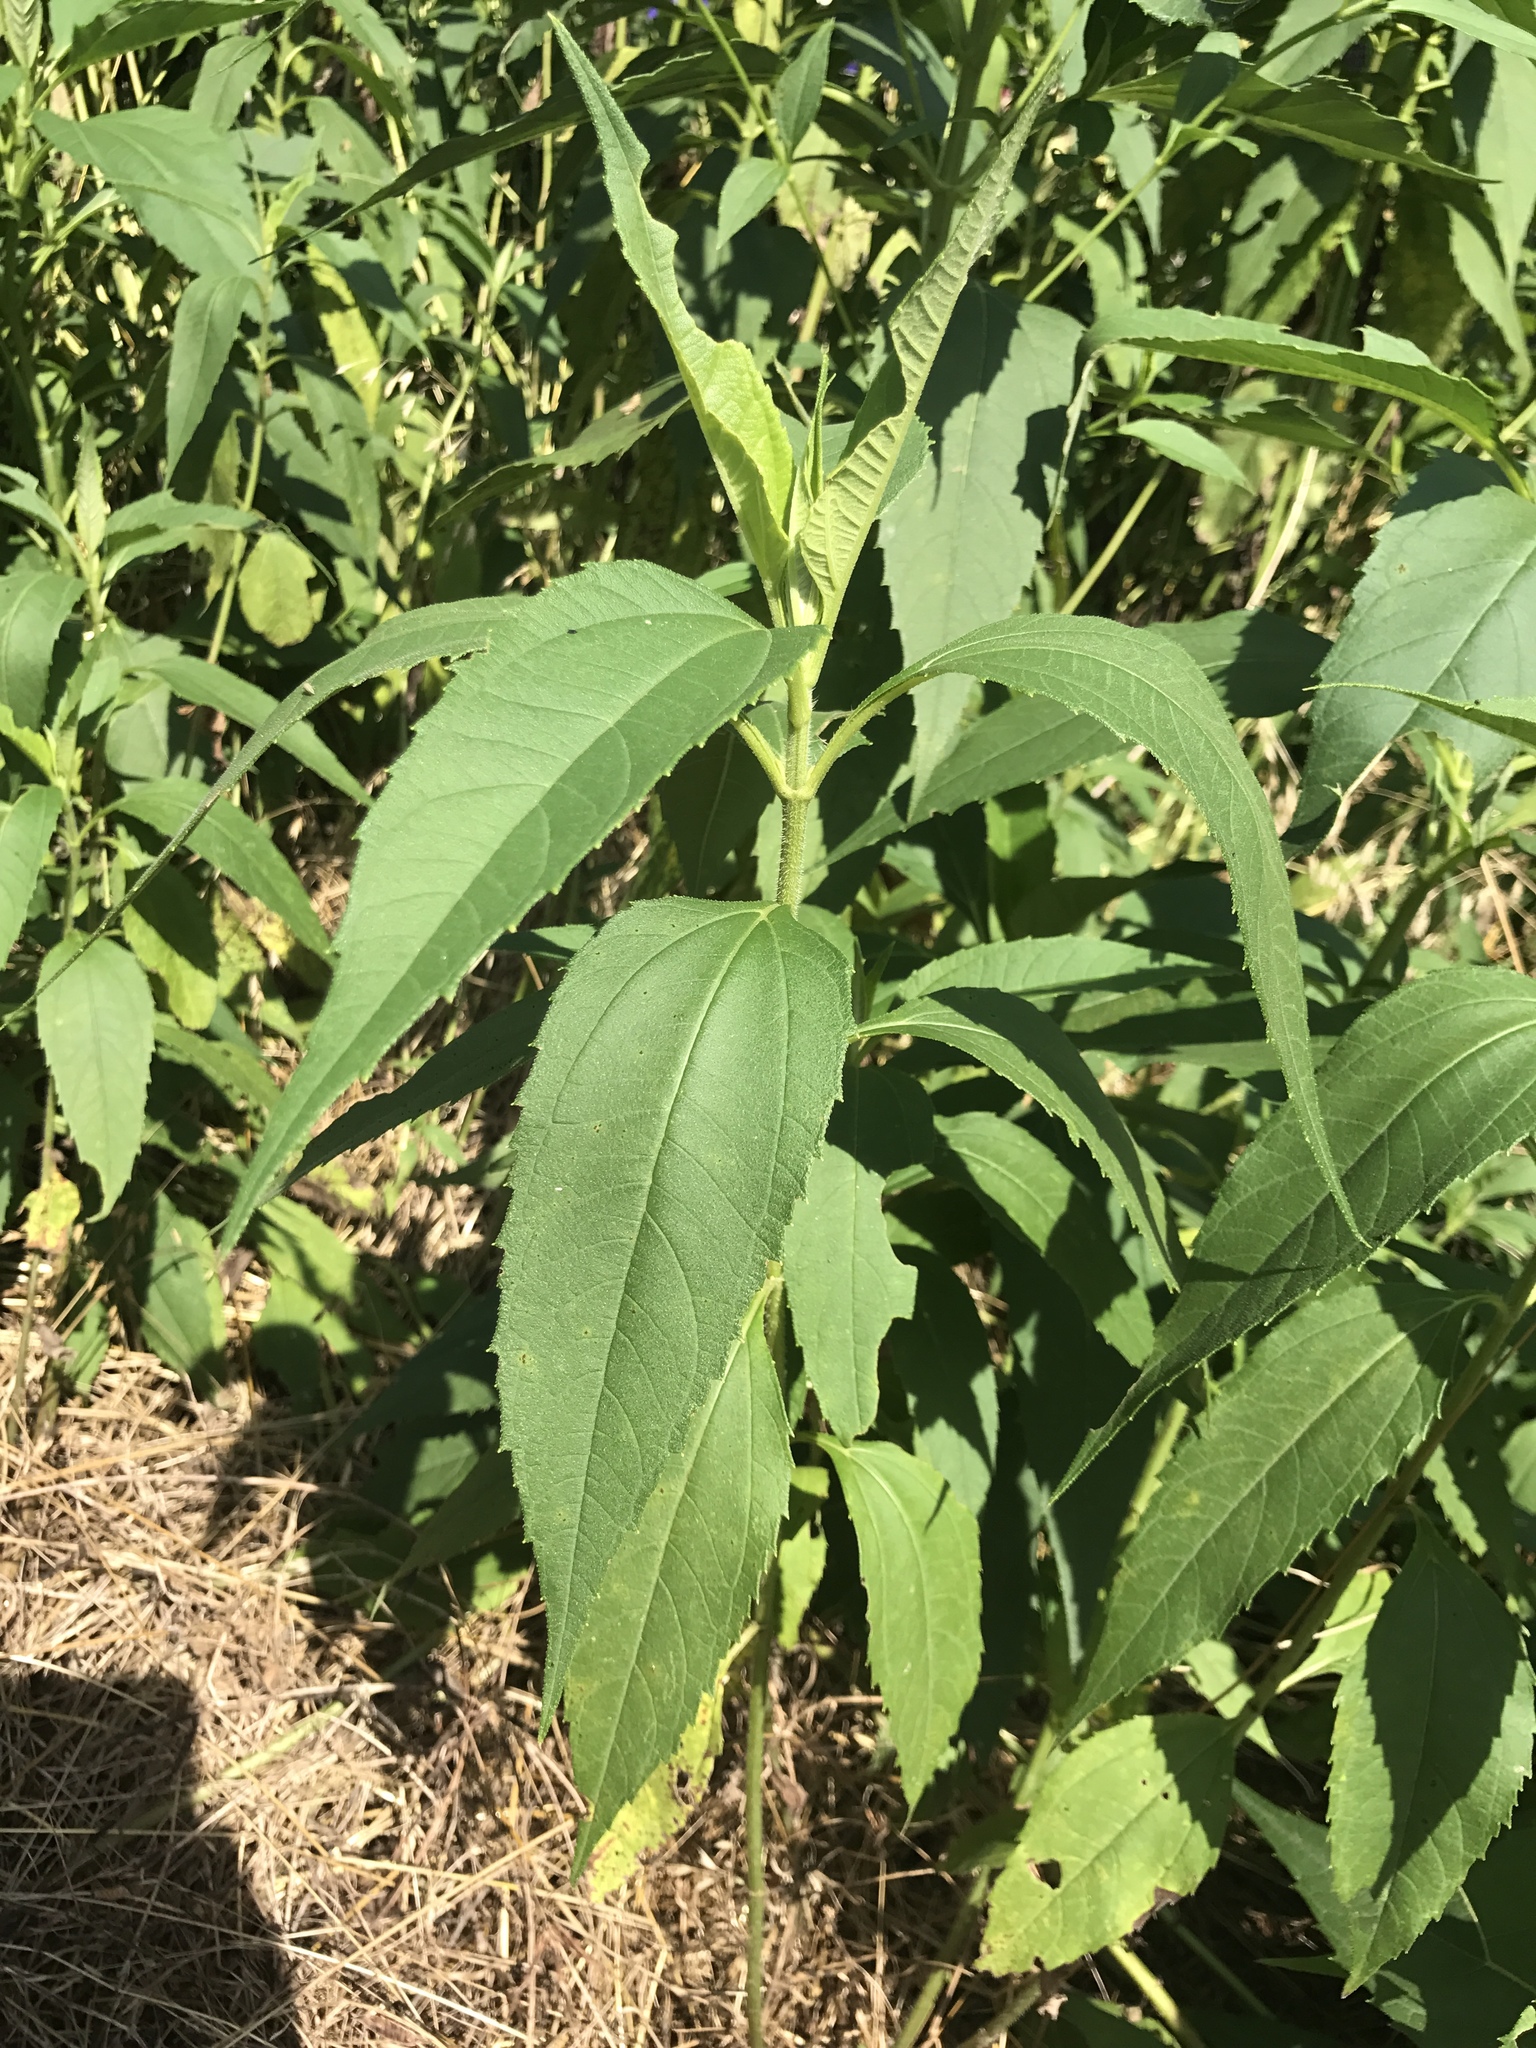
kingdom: Plantae
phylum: Tracheophyta
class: Magnoliopsida
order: Asterales
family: Asteraceae
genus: Helianthus
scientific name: Helianthus tuberosus
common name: Jerusalem artichoke
